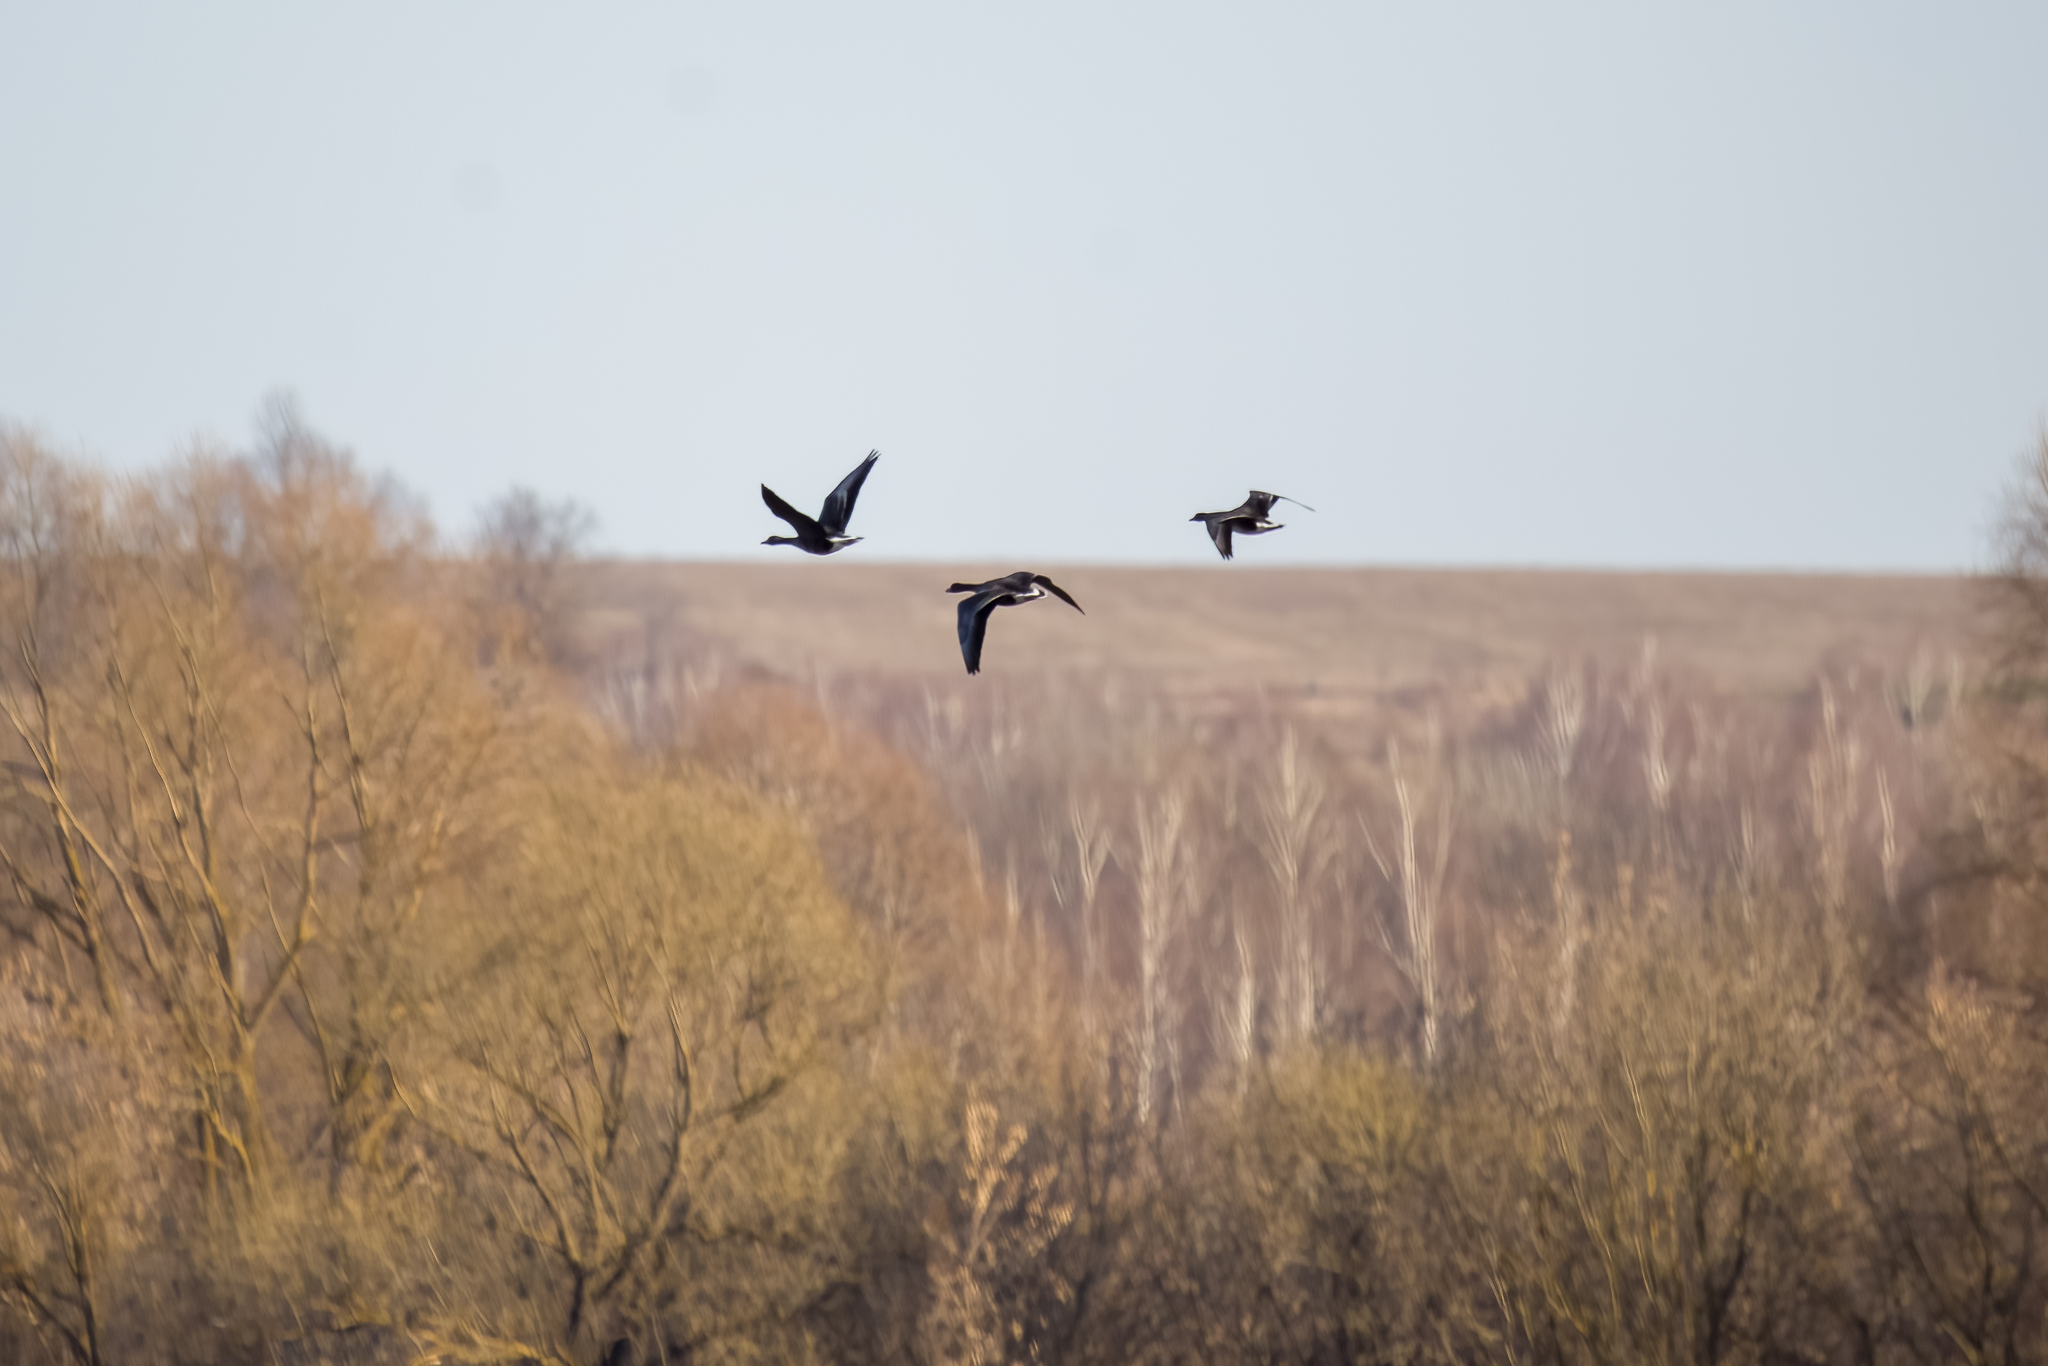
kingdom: Animalia
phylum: Chordata
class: Aves
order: Anseriformes
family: Anatidae
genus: Anser
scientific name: Anser albifrons
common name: Greater white-fronted goose
